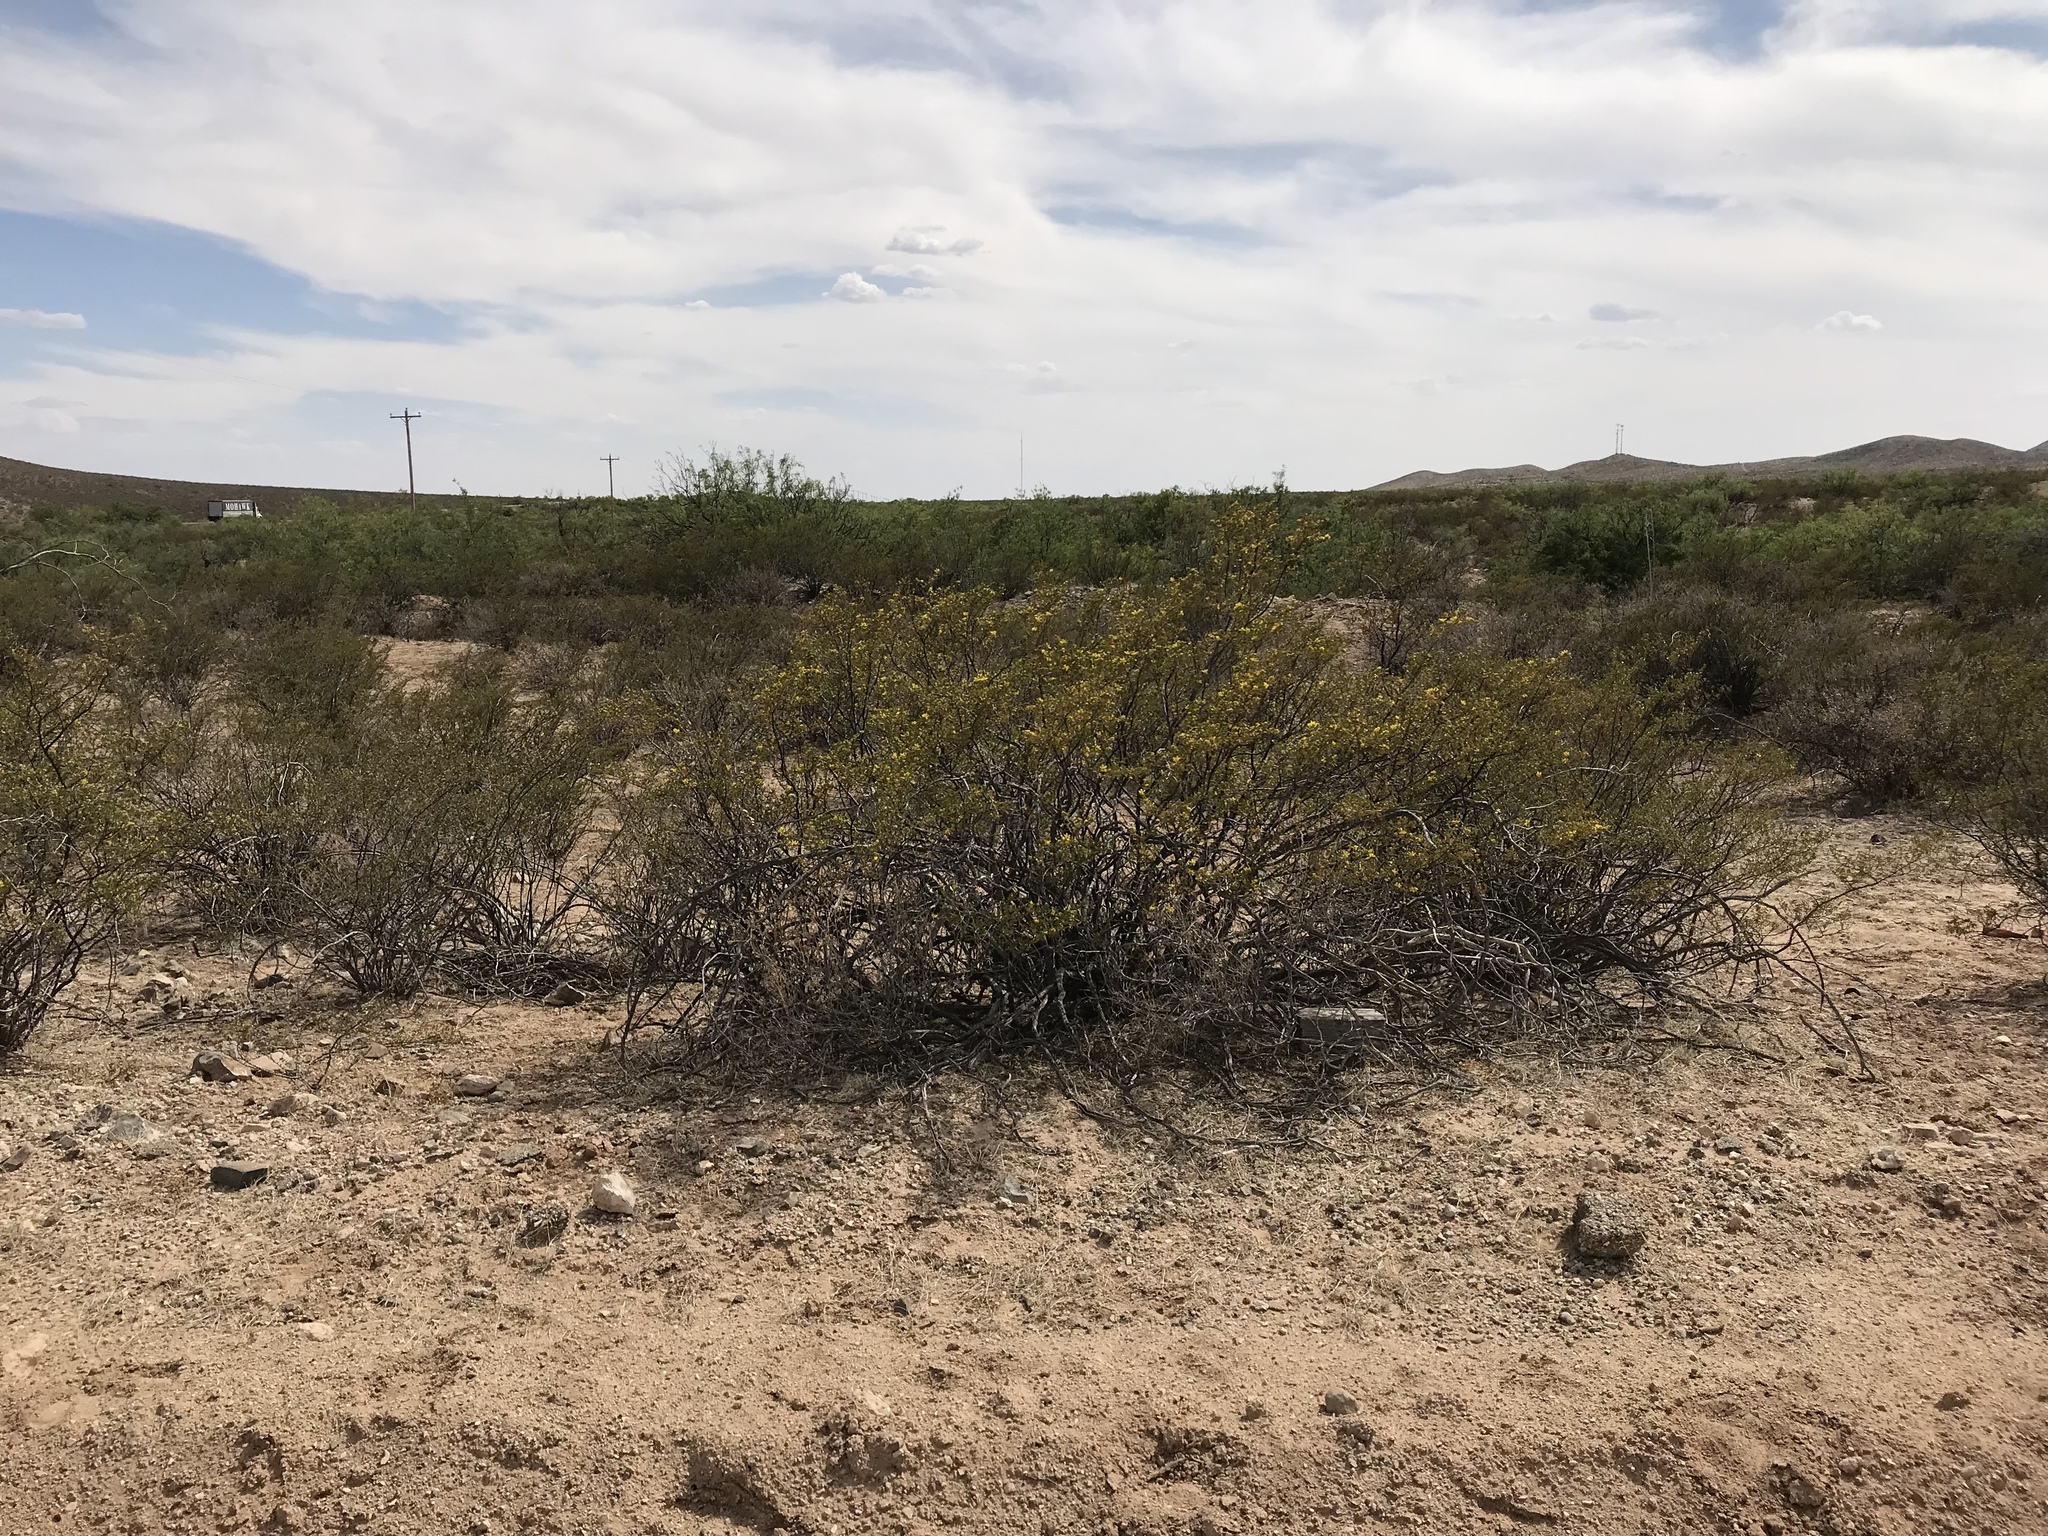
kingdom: Plantae
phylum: Tracheophyta
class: Magnoliopsida
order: Zygophyllales
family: Zygophyllaceae
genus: Larrea
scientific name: Larrea tridentata
